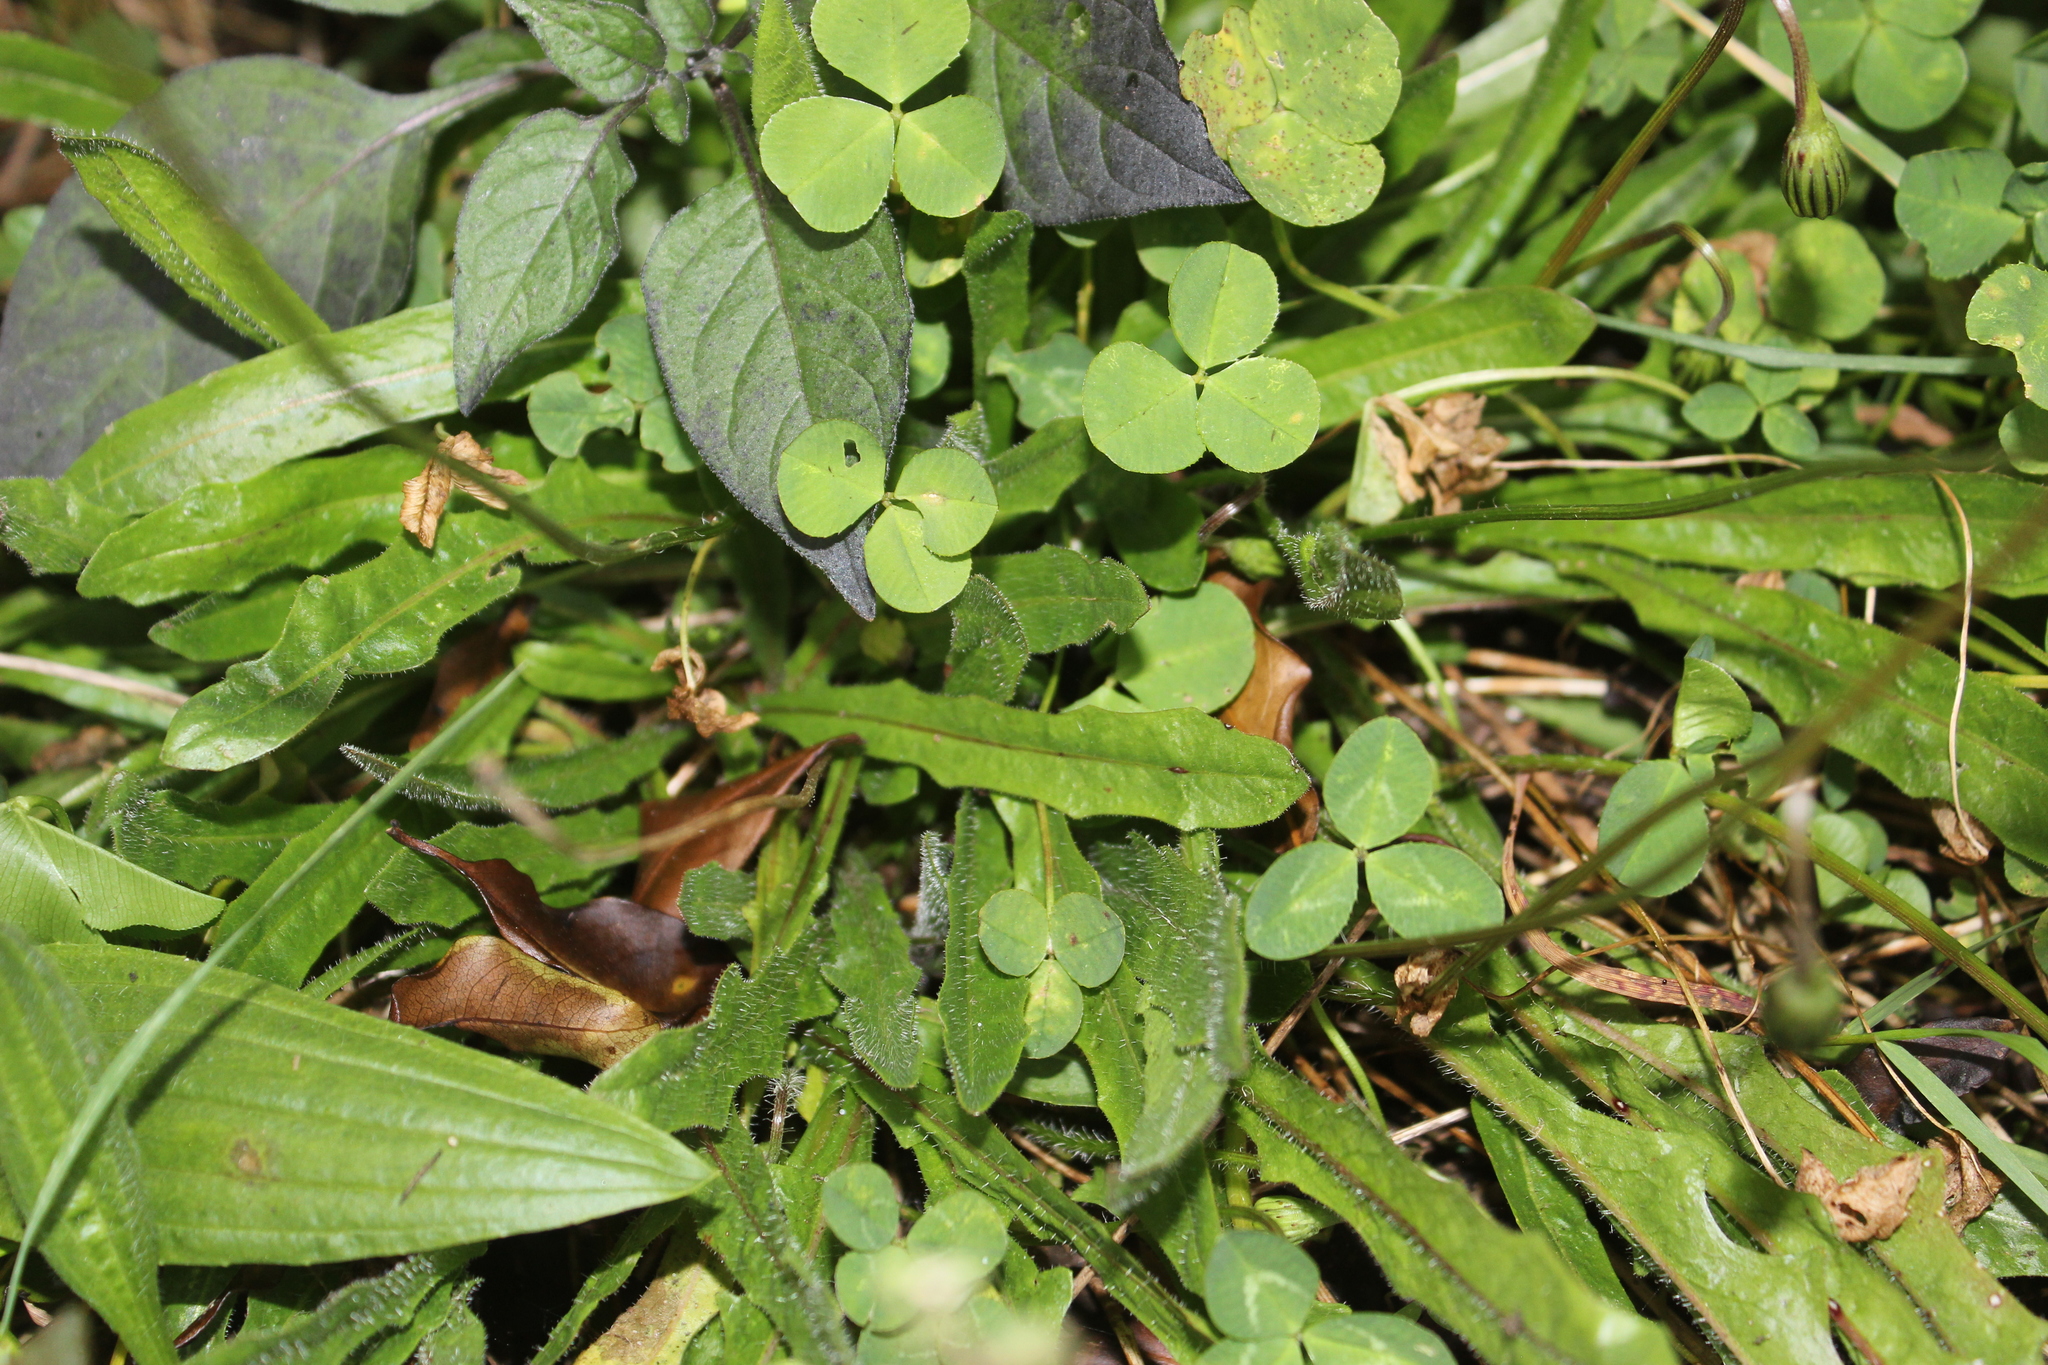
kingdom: Plantae
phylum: Tracheophyta
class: Magnoliopsida
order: Asterales
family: Asteraceae
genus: Hypochaeris
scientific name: Hypochaeris radicata
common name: Flatweed
